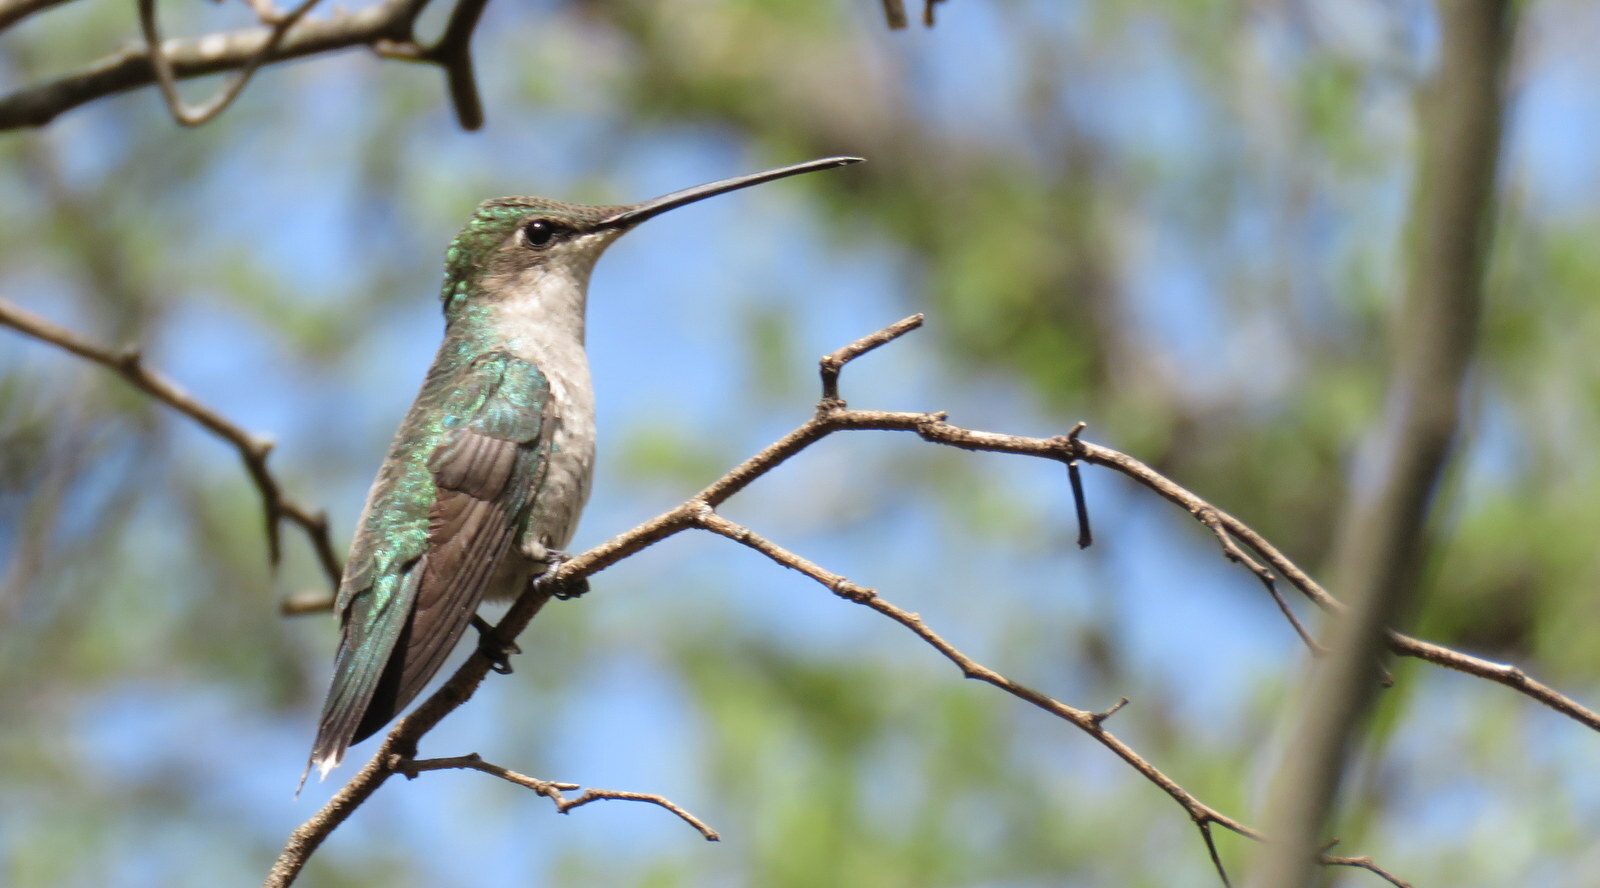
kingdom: Animalia
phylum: Chordata
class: Aves
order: Apodiformes
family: Trochilidae
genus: Heliomaster
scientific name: Heliomaster furcifer
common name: Blue-tufted starthroat
